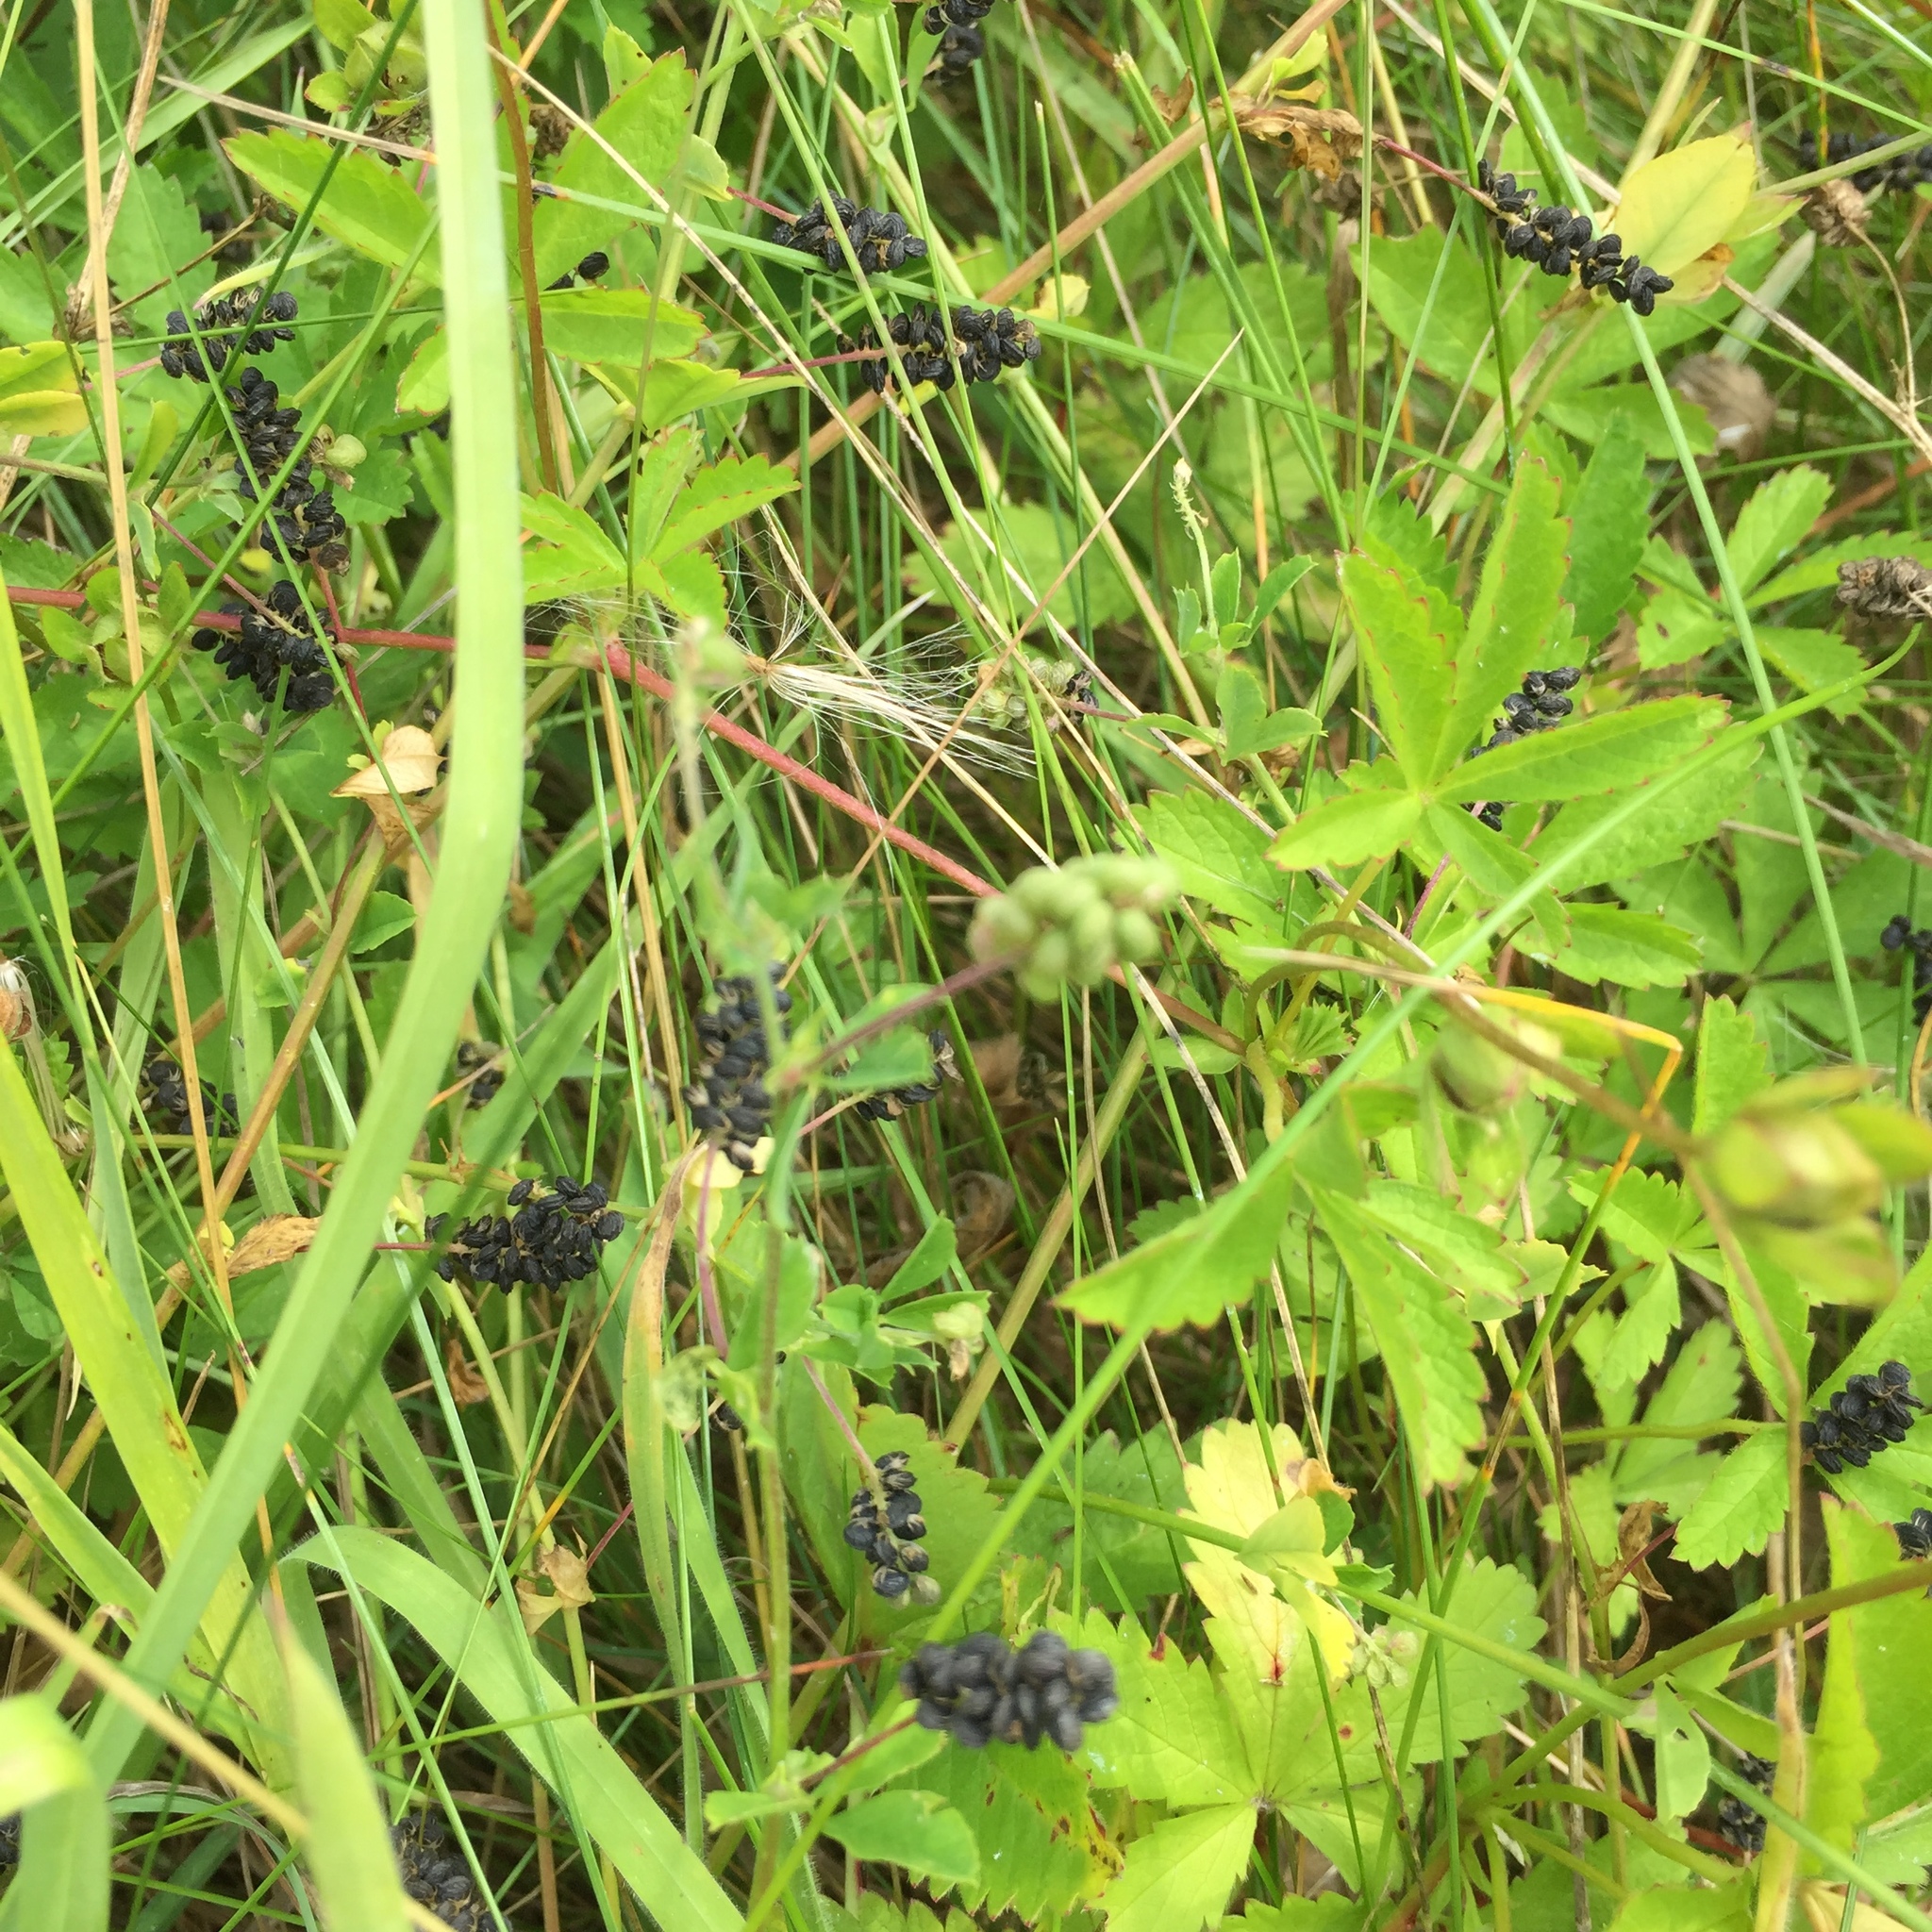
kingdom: Plantae
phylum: Tracheophyta
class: Magnoliopsida
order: Fabales
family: Fabaceae
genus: Medicago
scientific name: Medicago lupulina
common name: Black medick
